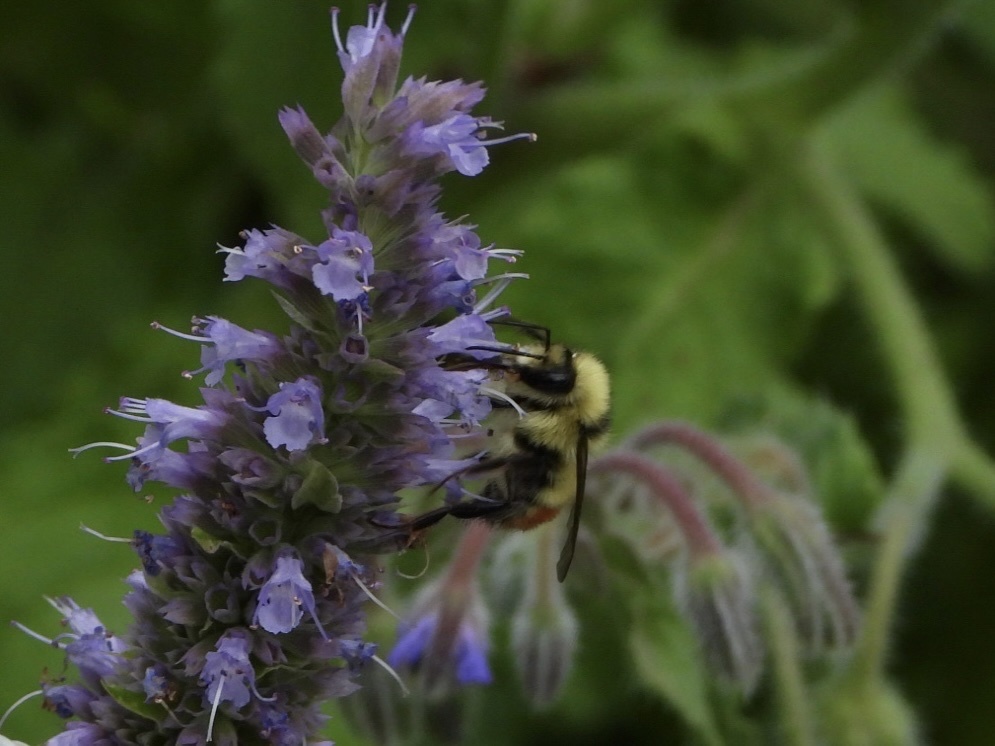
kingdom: Animalia
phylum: Arthropoda
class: Insecta
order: Hymenoptera
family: Apidae
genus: Bombus
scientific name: Bombus centralis
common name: Central bumble bee
